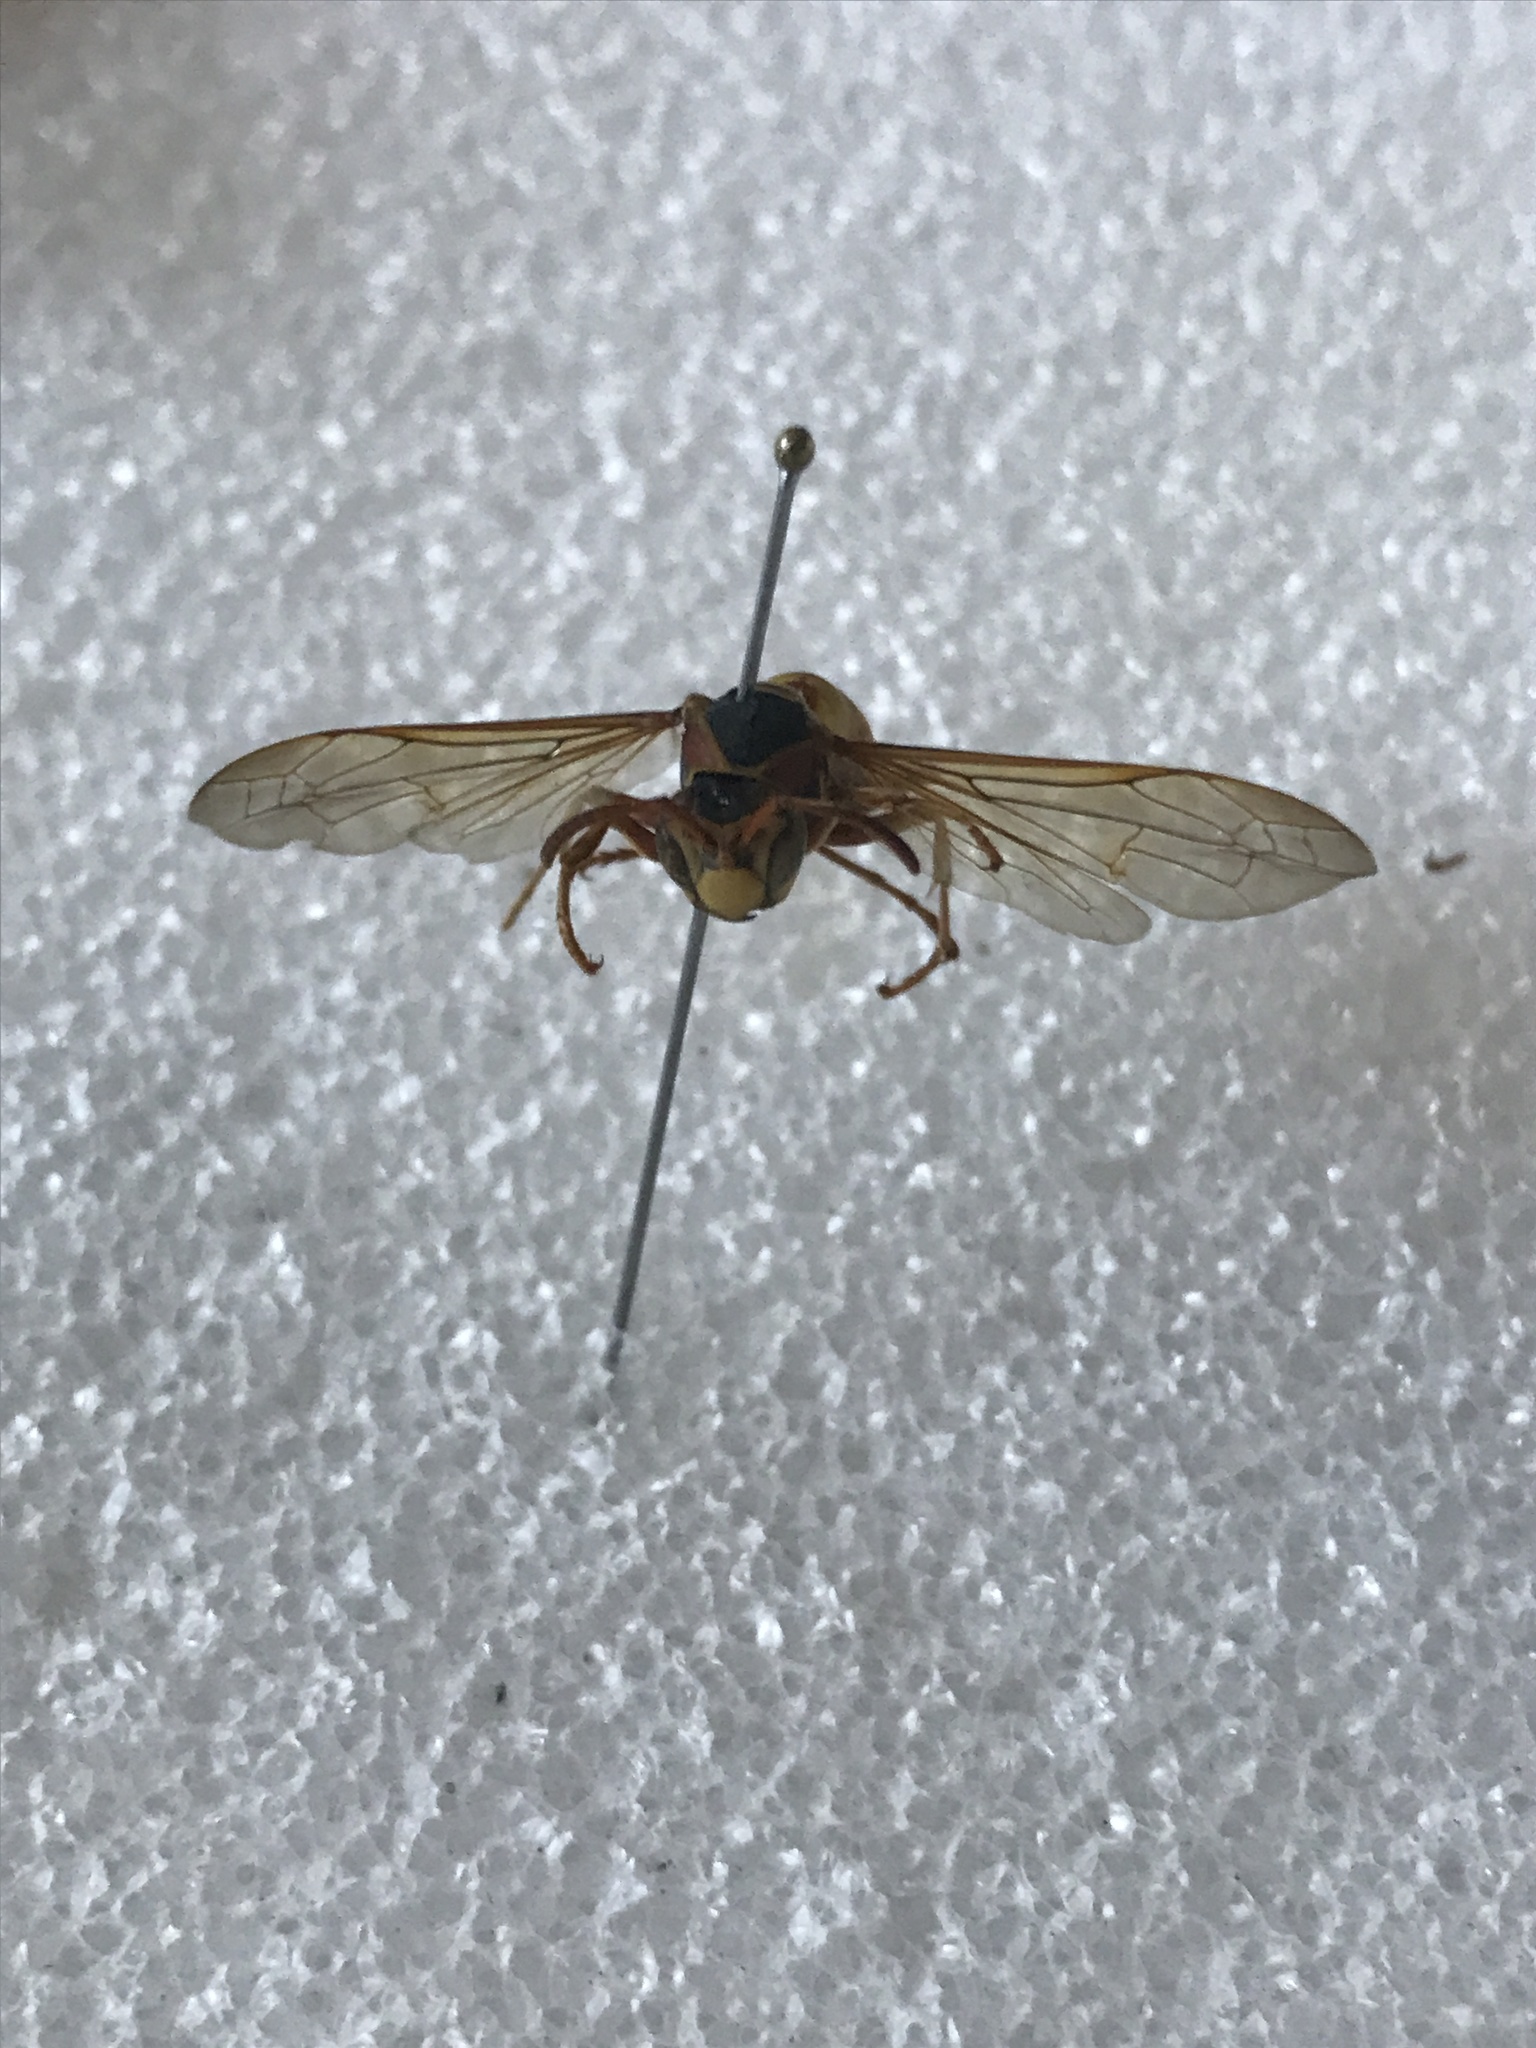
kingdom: Animalia
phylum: Arthropoda
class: Insecta
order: Hymenoptera
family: Eumenidae
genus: Polistes
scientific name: Polistes aurifer
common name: Paper wasp
